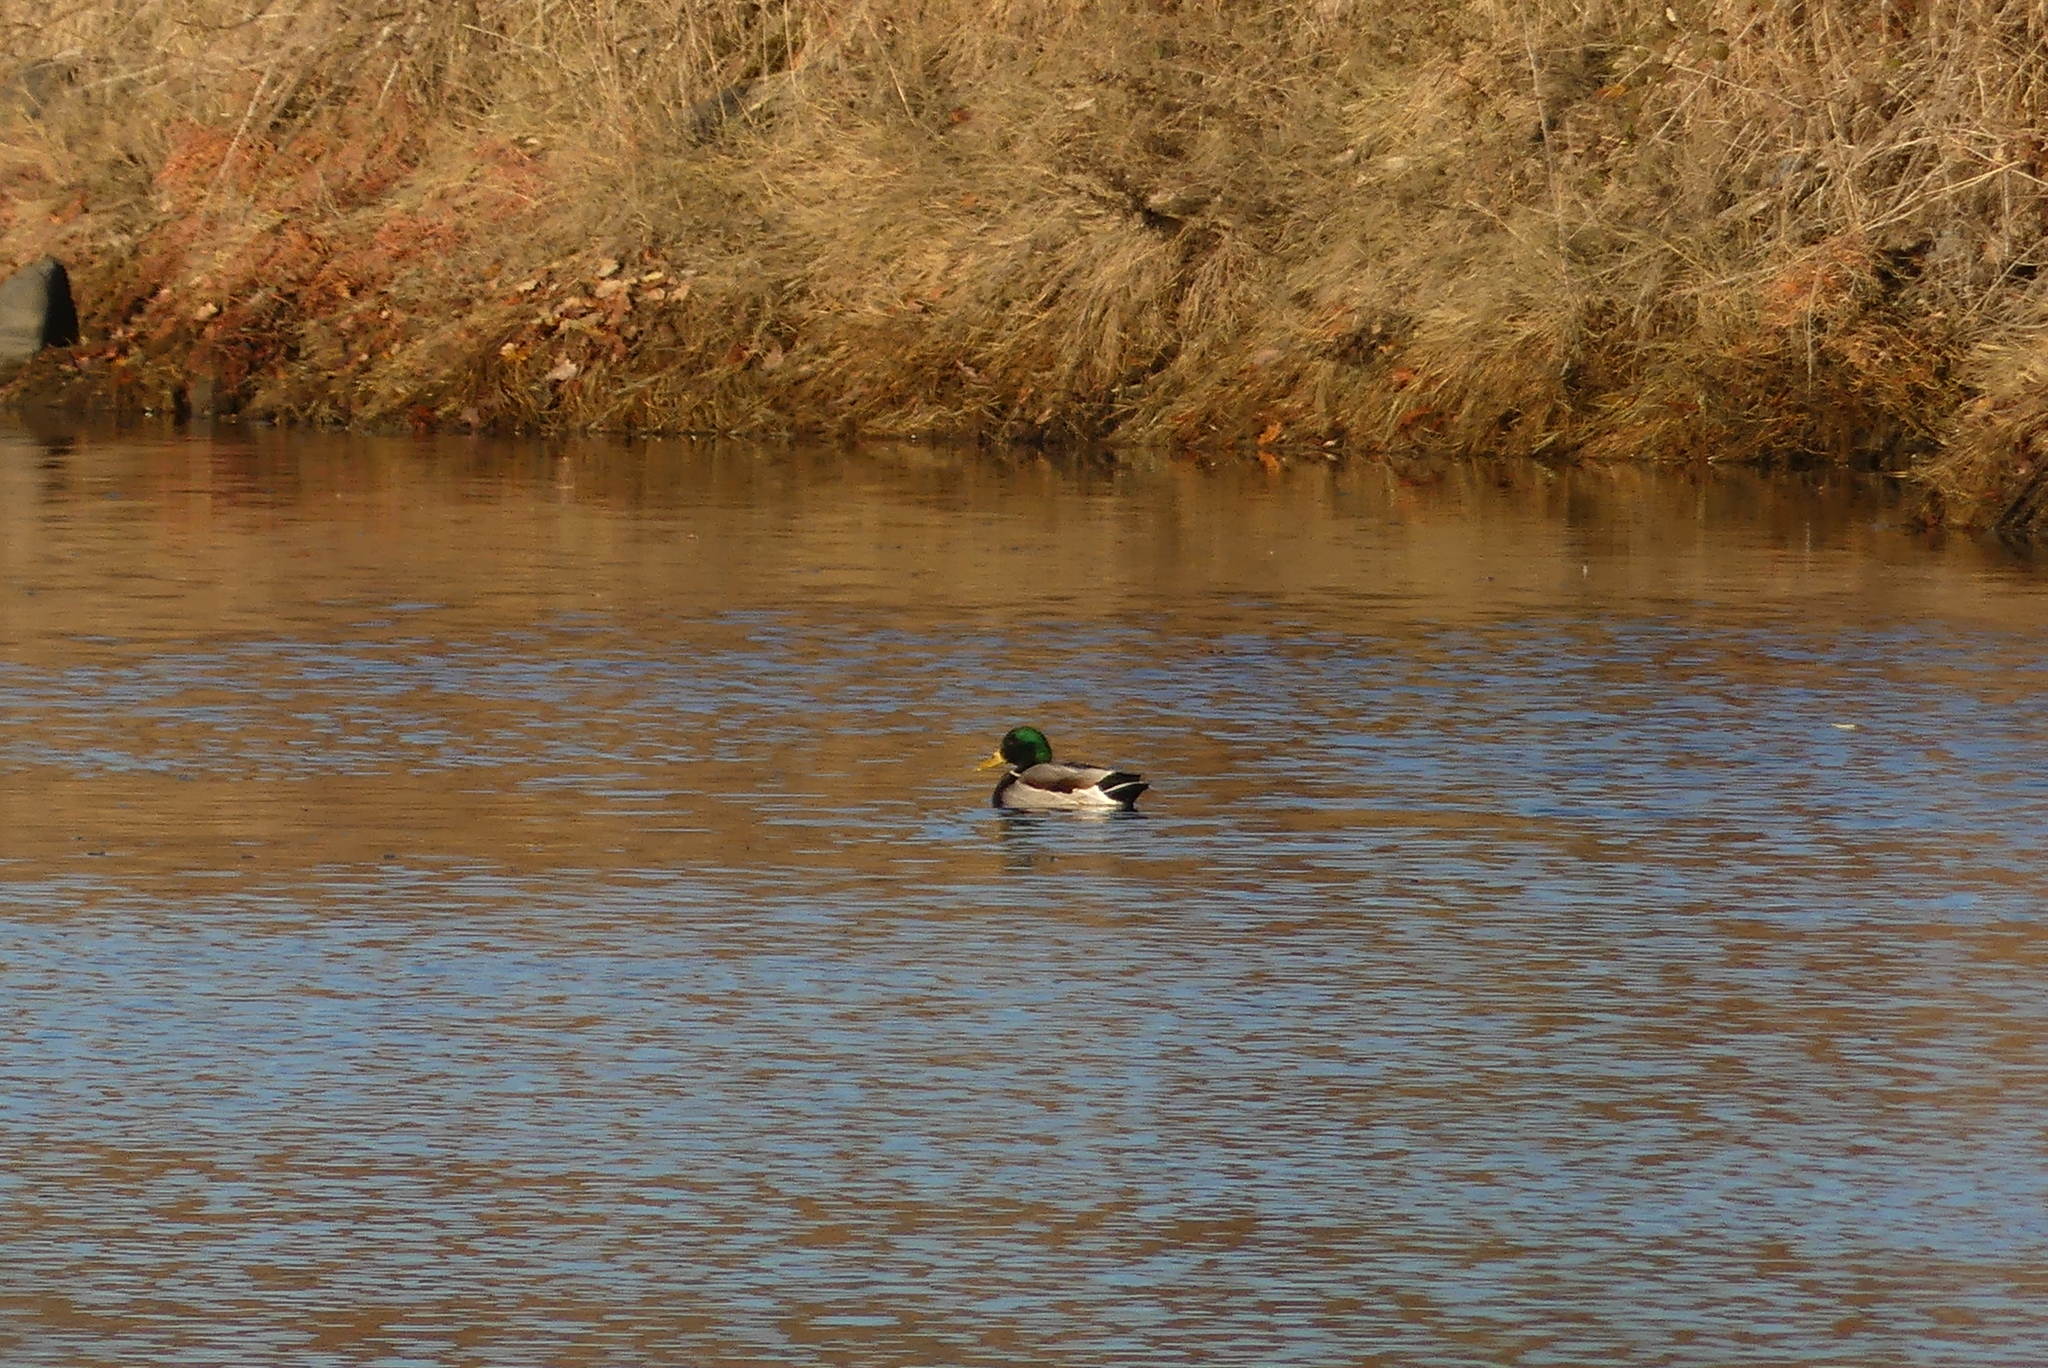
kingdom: Animalia
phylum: Chordata
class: Aves
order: Anseriformes
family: Anatidae
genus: Anas
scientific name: Anas platyrhynchos
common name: Mallard
